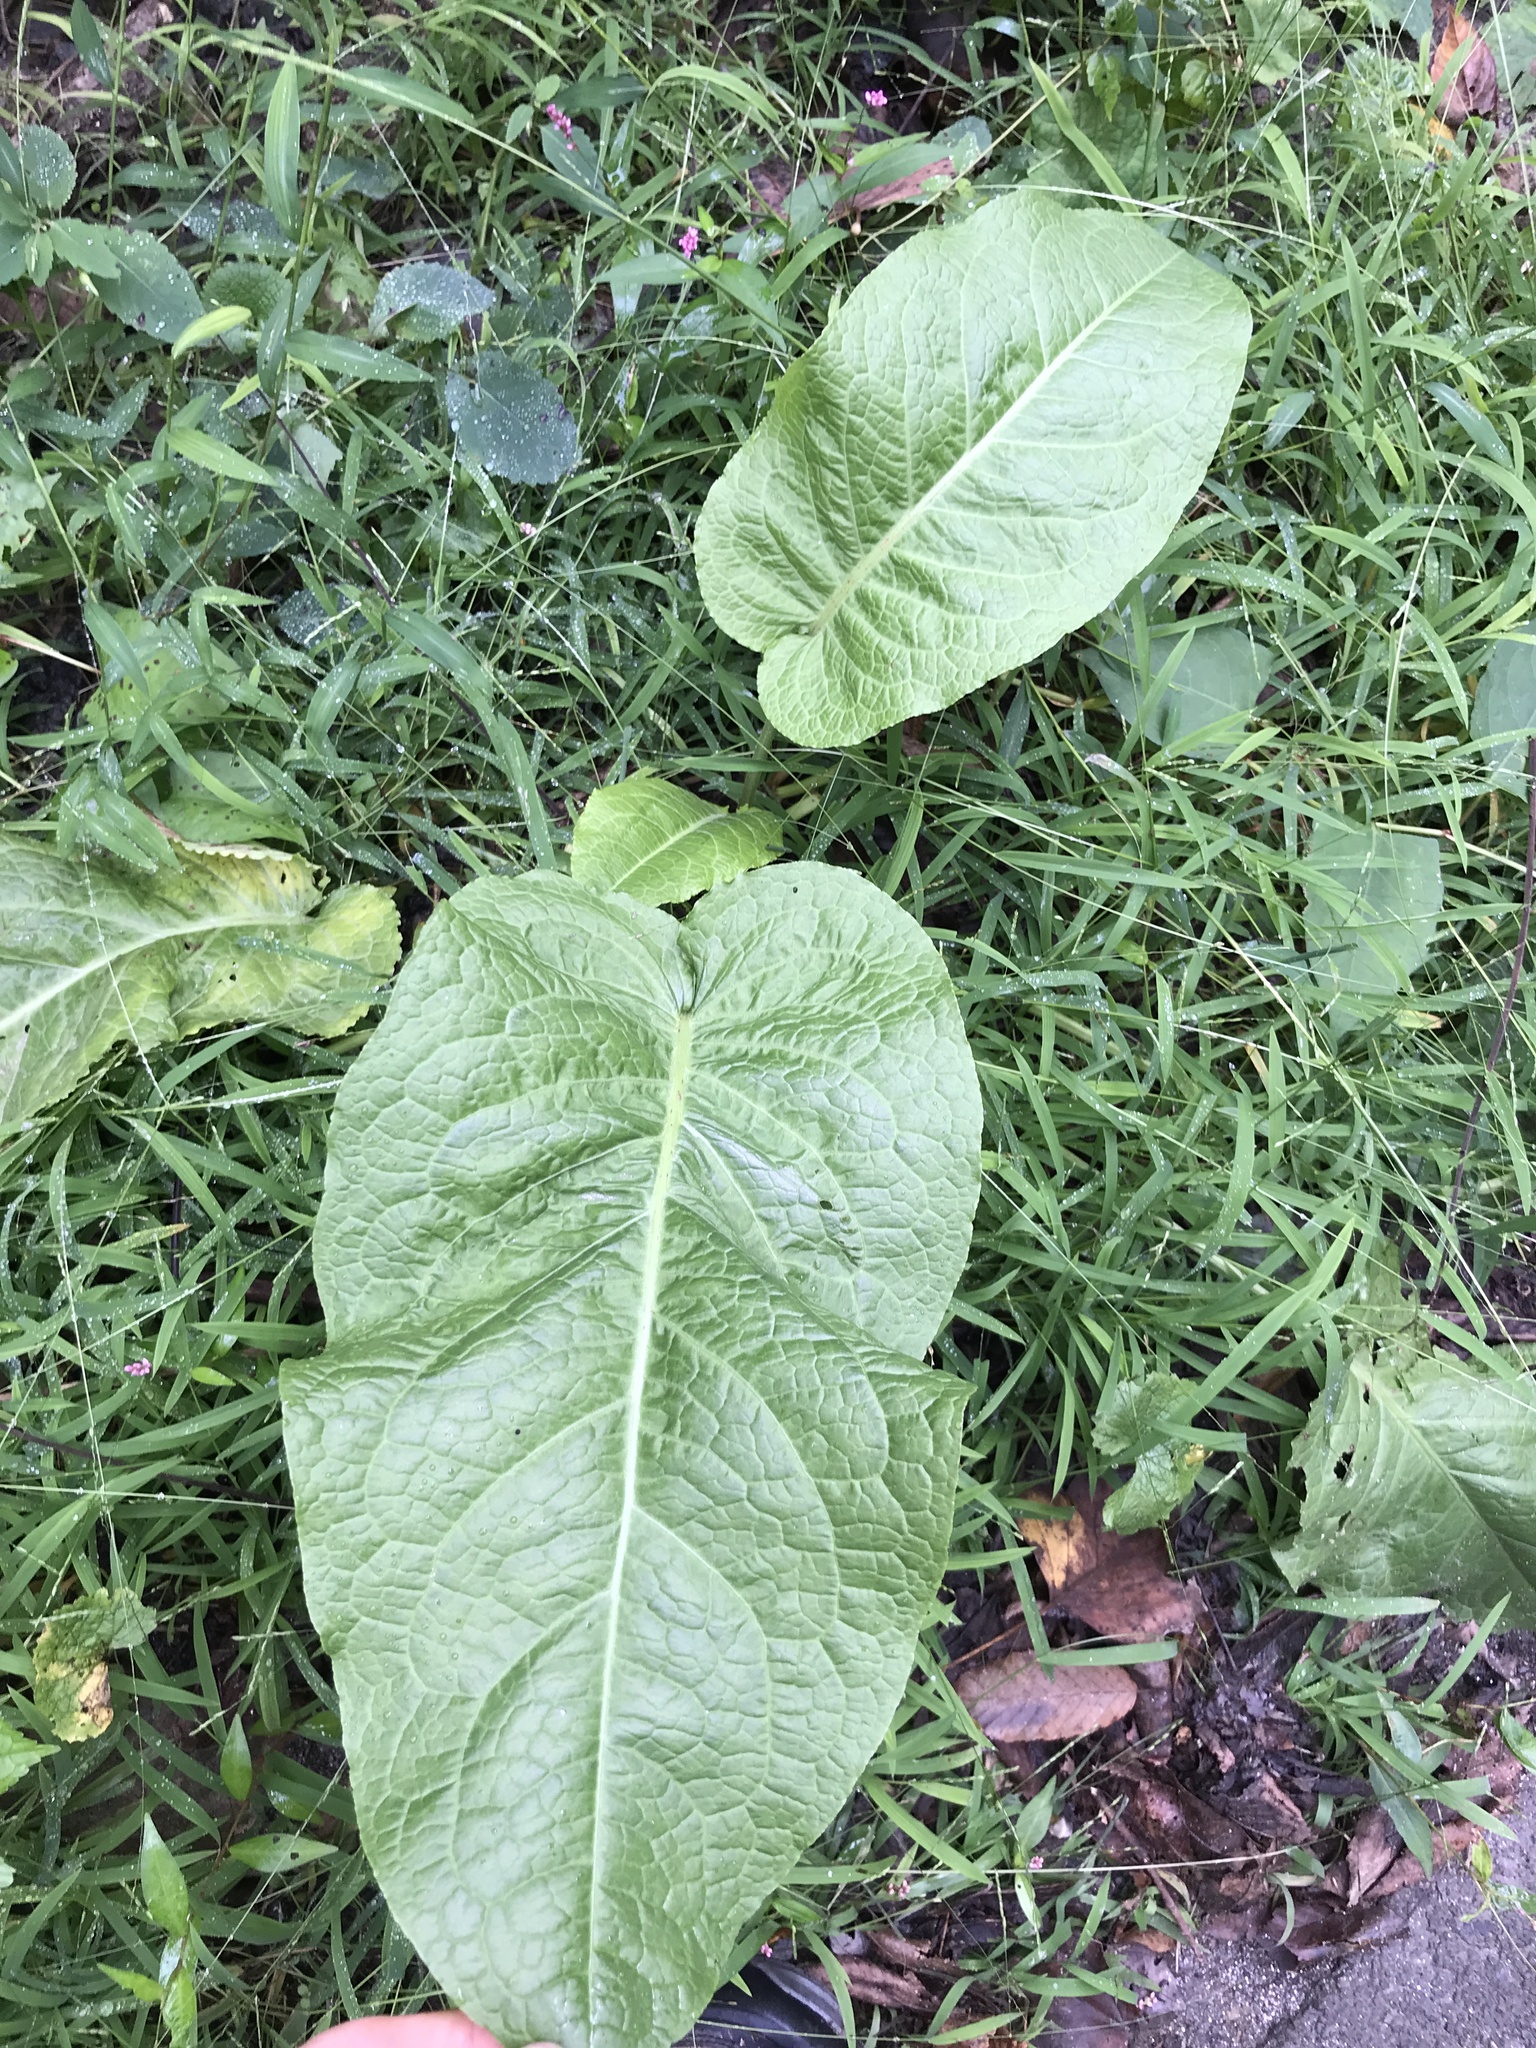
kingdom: Plantae
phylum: Tracheophyta
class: Magnoliopsida
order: Caryophyllales
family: Polygonaceae
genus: Rumex
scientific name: Rumex obtusifolius
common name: Bitter dock
